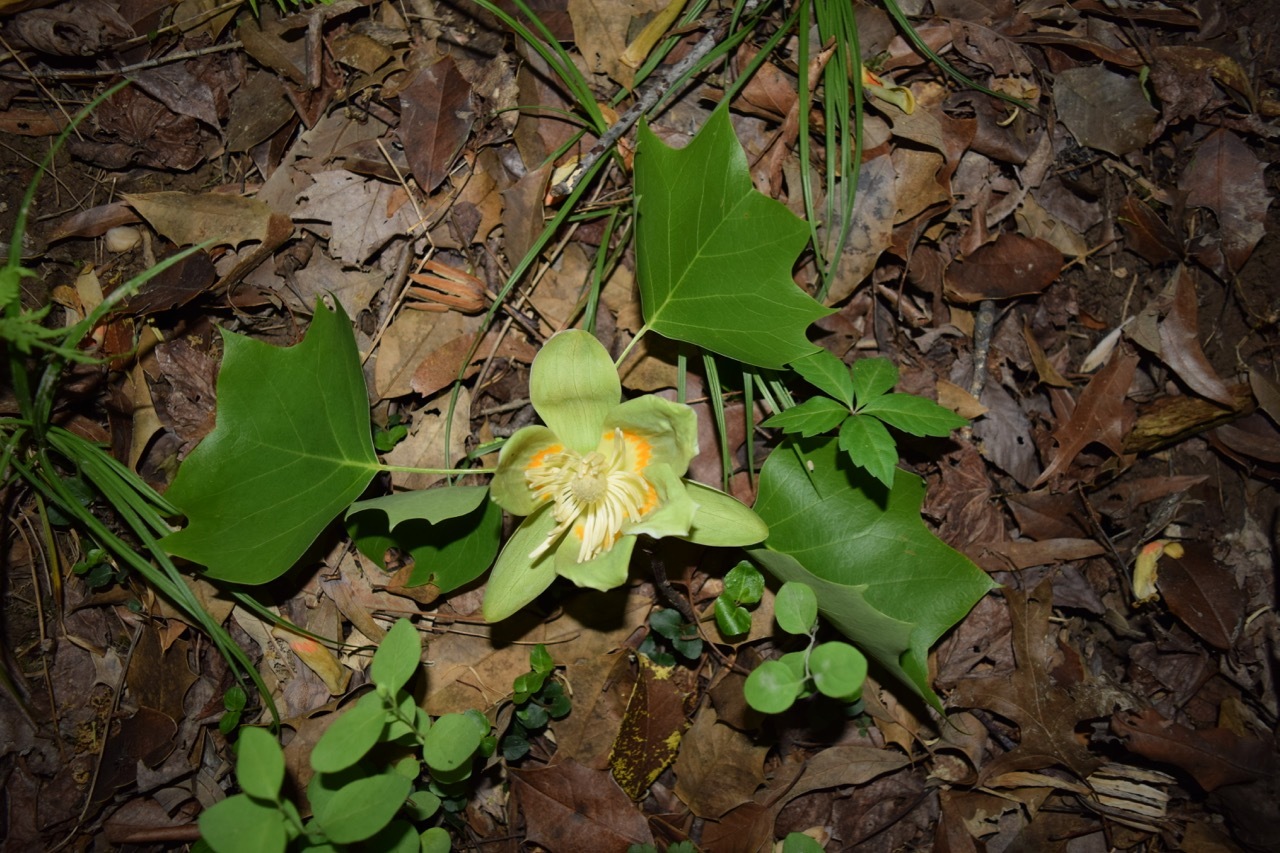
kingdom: Plantae
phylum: Tracheophyta
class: Magnoliopsida
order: Magnoliales
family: Magnoliaceae
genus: Liriodendron
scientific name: Liriodendron tulipifera
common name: Tulip tree
